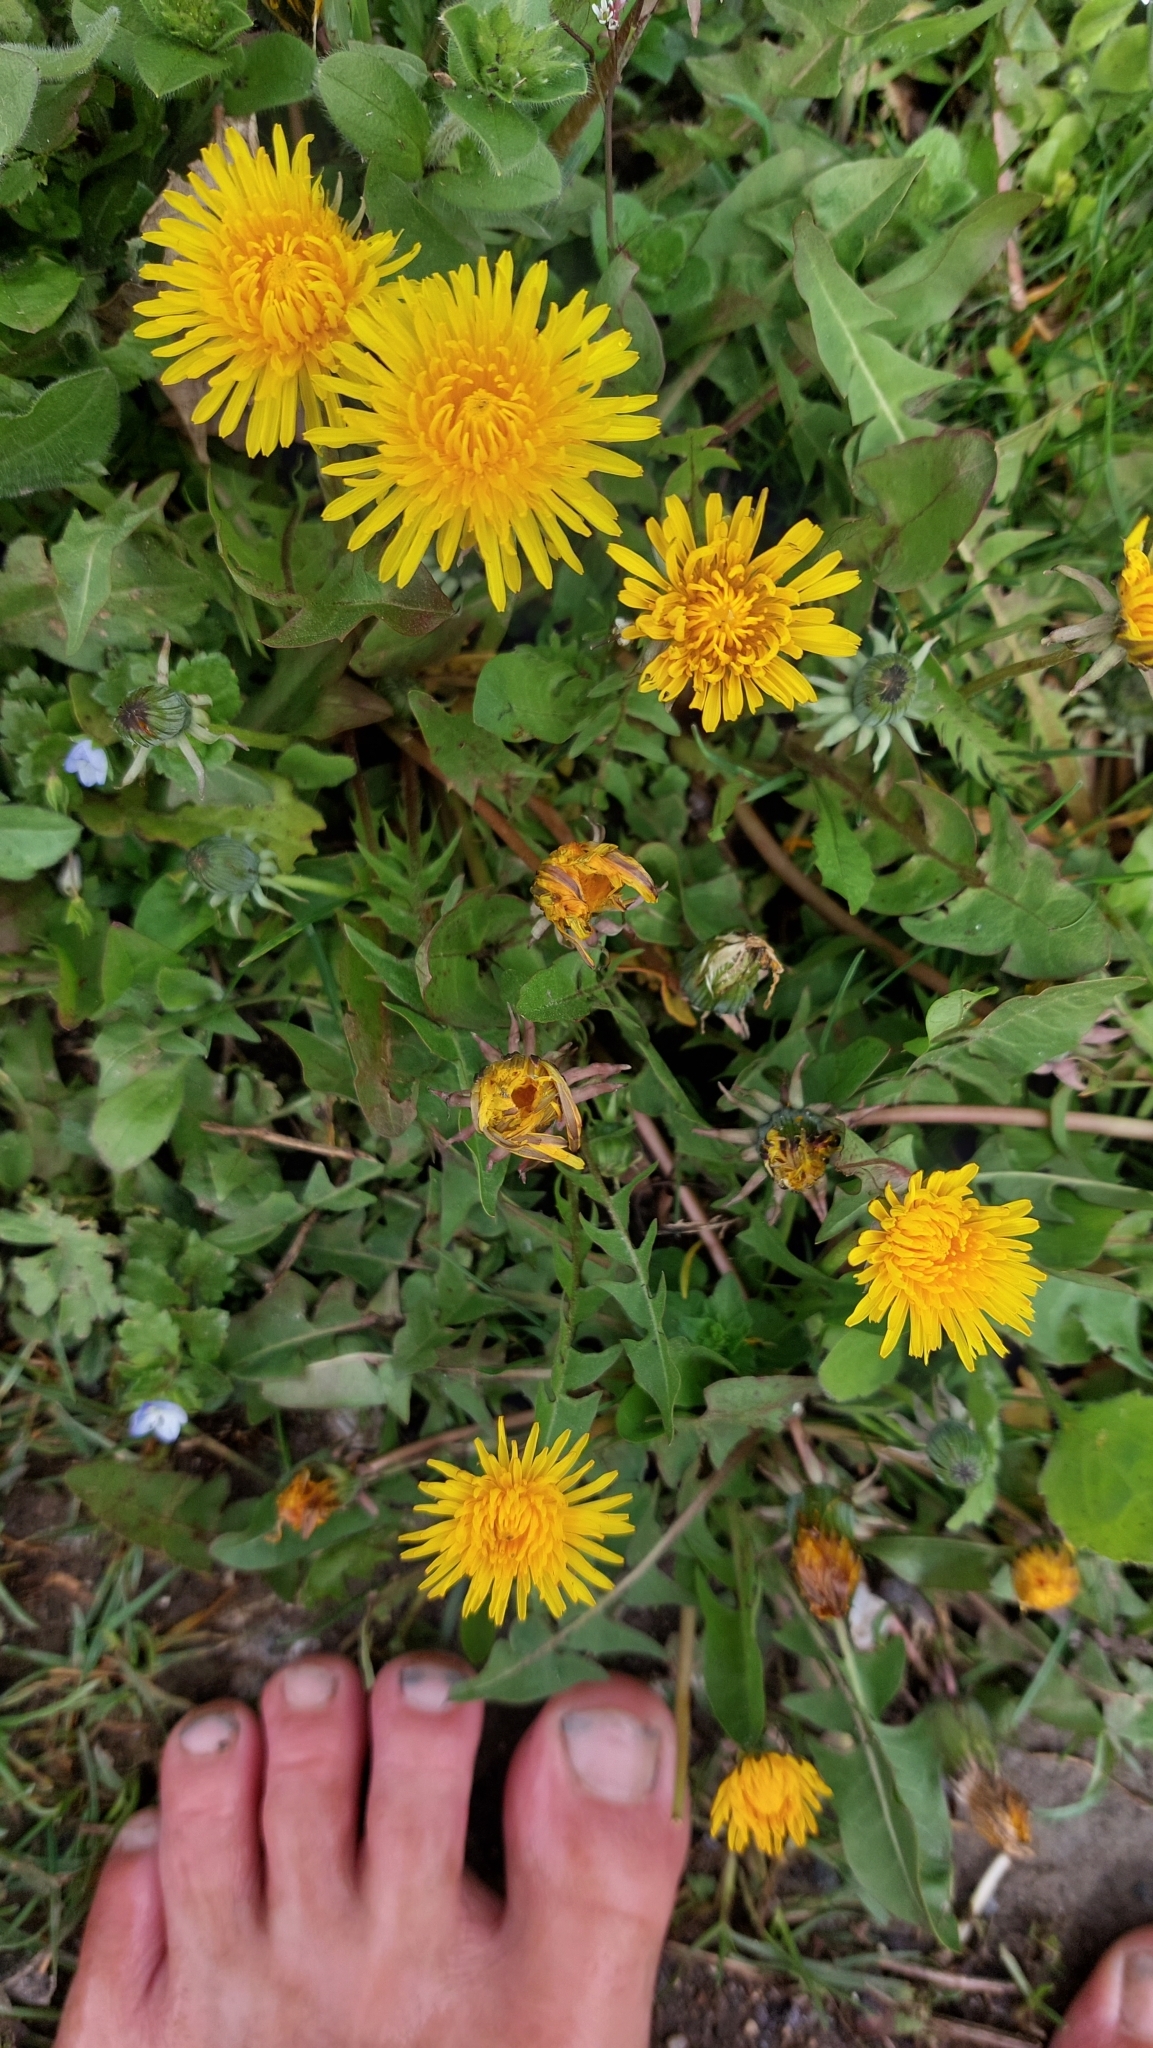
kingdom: Plantae
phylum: Tracheophyta
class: Magnoliopsida
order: Asterales
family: Asteraceae
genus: Taraxacum
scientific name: Taraxacum
